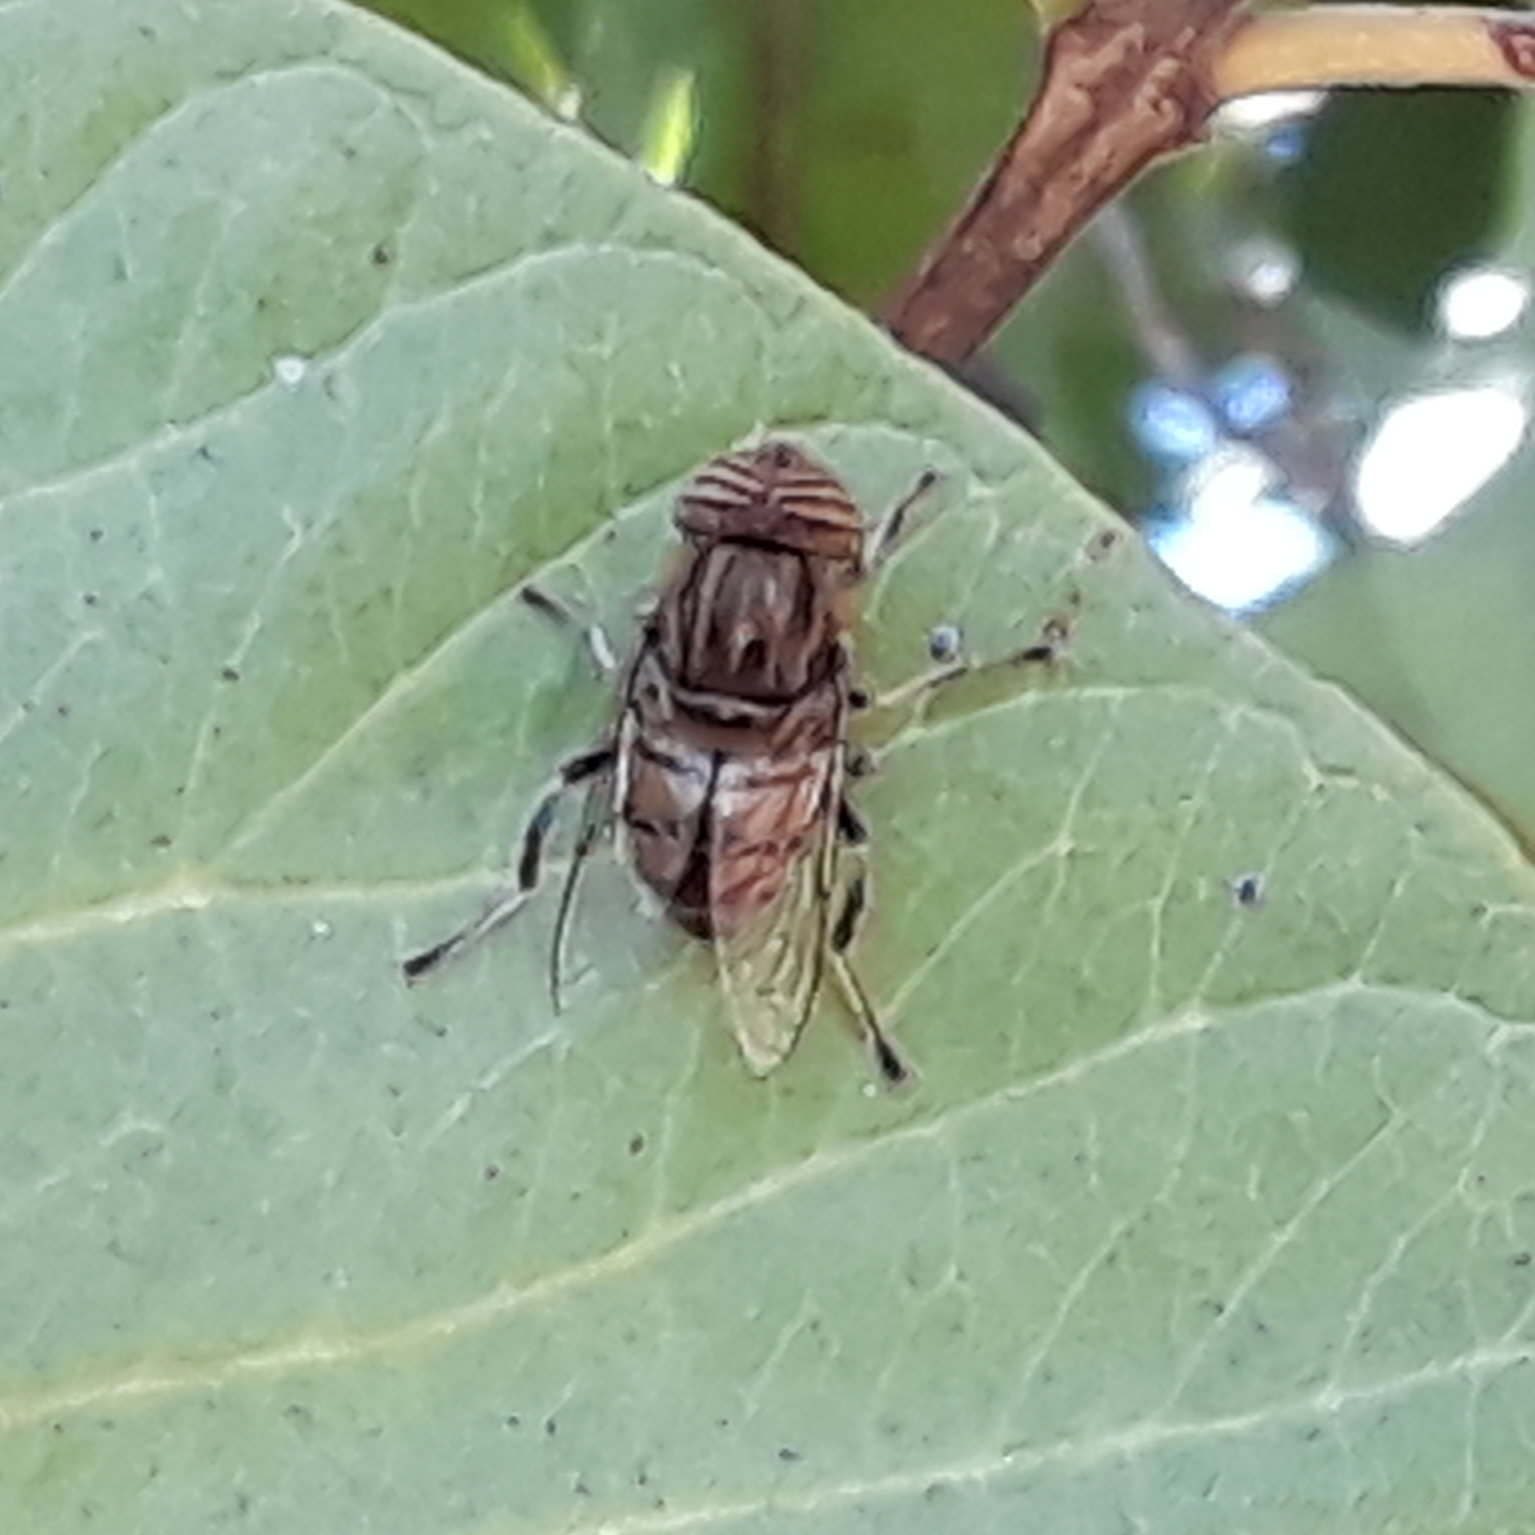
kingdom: Animalia
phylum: Arthropoda
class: Insecta
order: Diptera
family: Syrphidae
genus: Eristalinus
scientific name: Eristalinus barclayi
